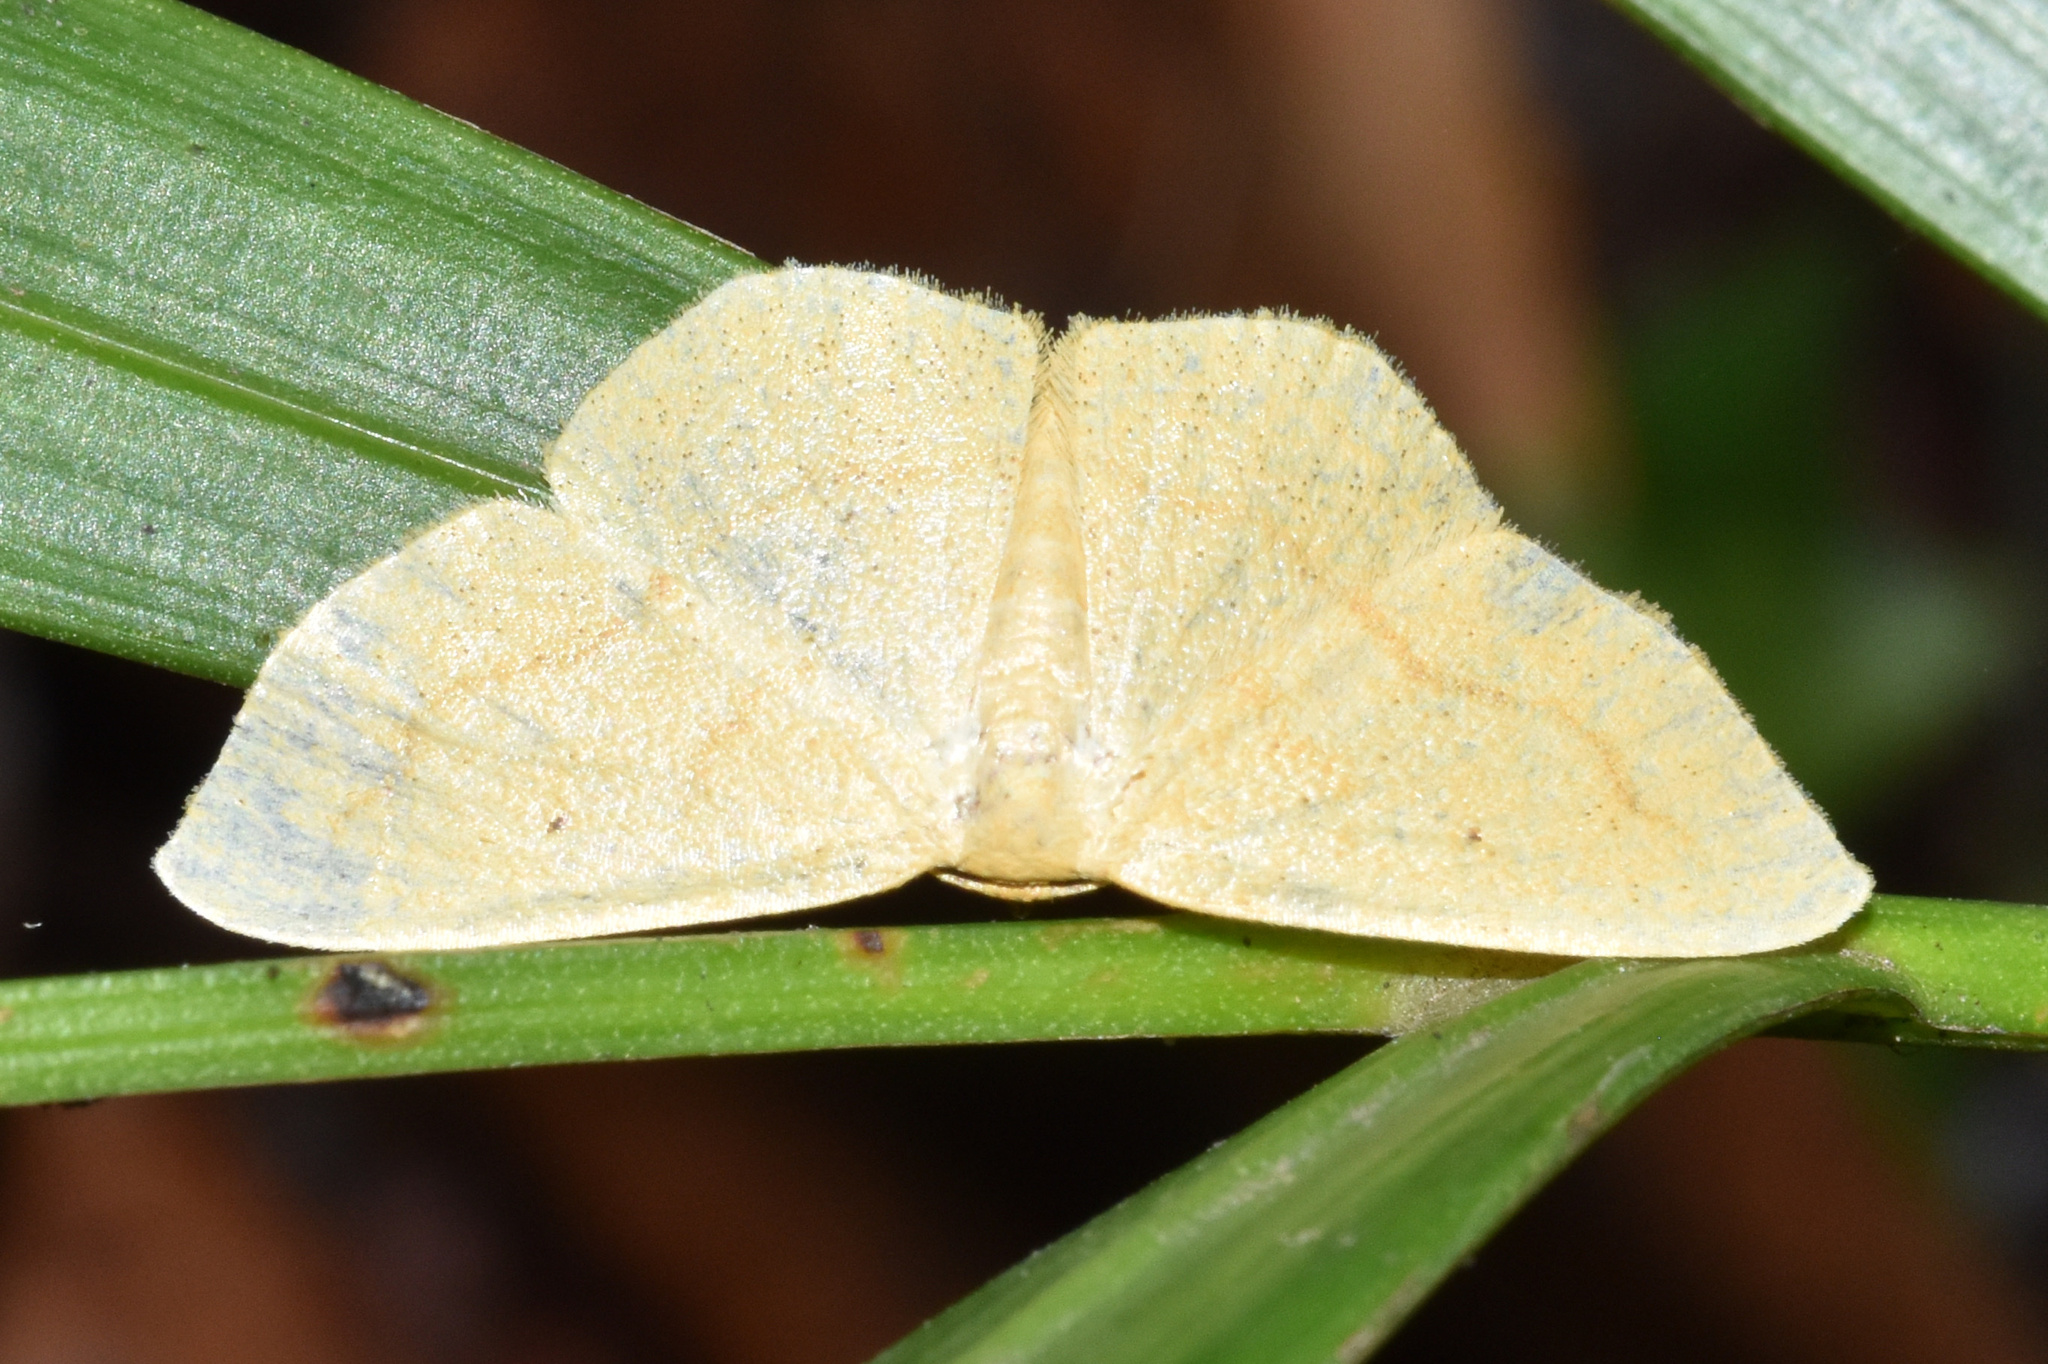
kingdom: Animalia
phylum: Arthropoda
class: Insecta
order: Lepidoptera
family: Geometridae
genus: Scopula
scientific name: Scopula straminea
